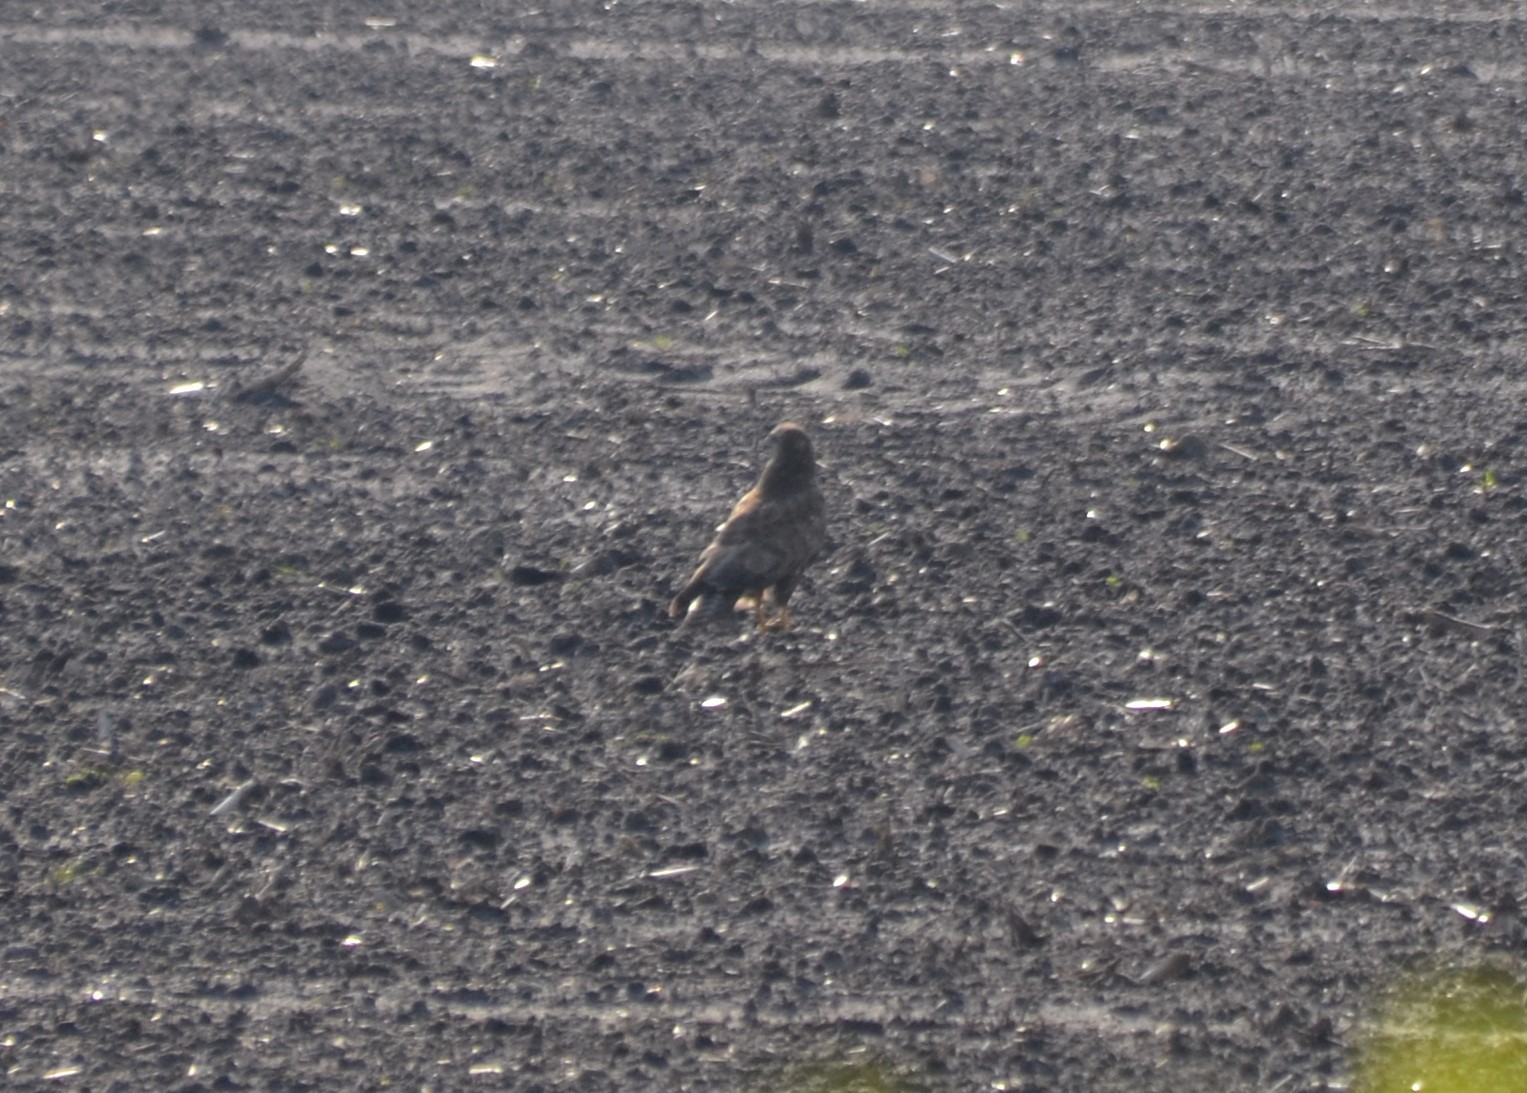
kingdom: Animalia
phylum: Chordata
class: Aves
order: Accipitriformes
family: Accipitridae
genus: Buteo
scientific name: Buteo buteo
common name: Common buzzard
